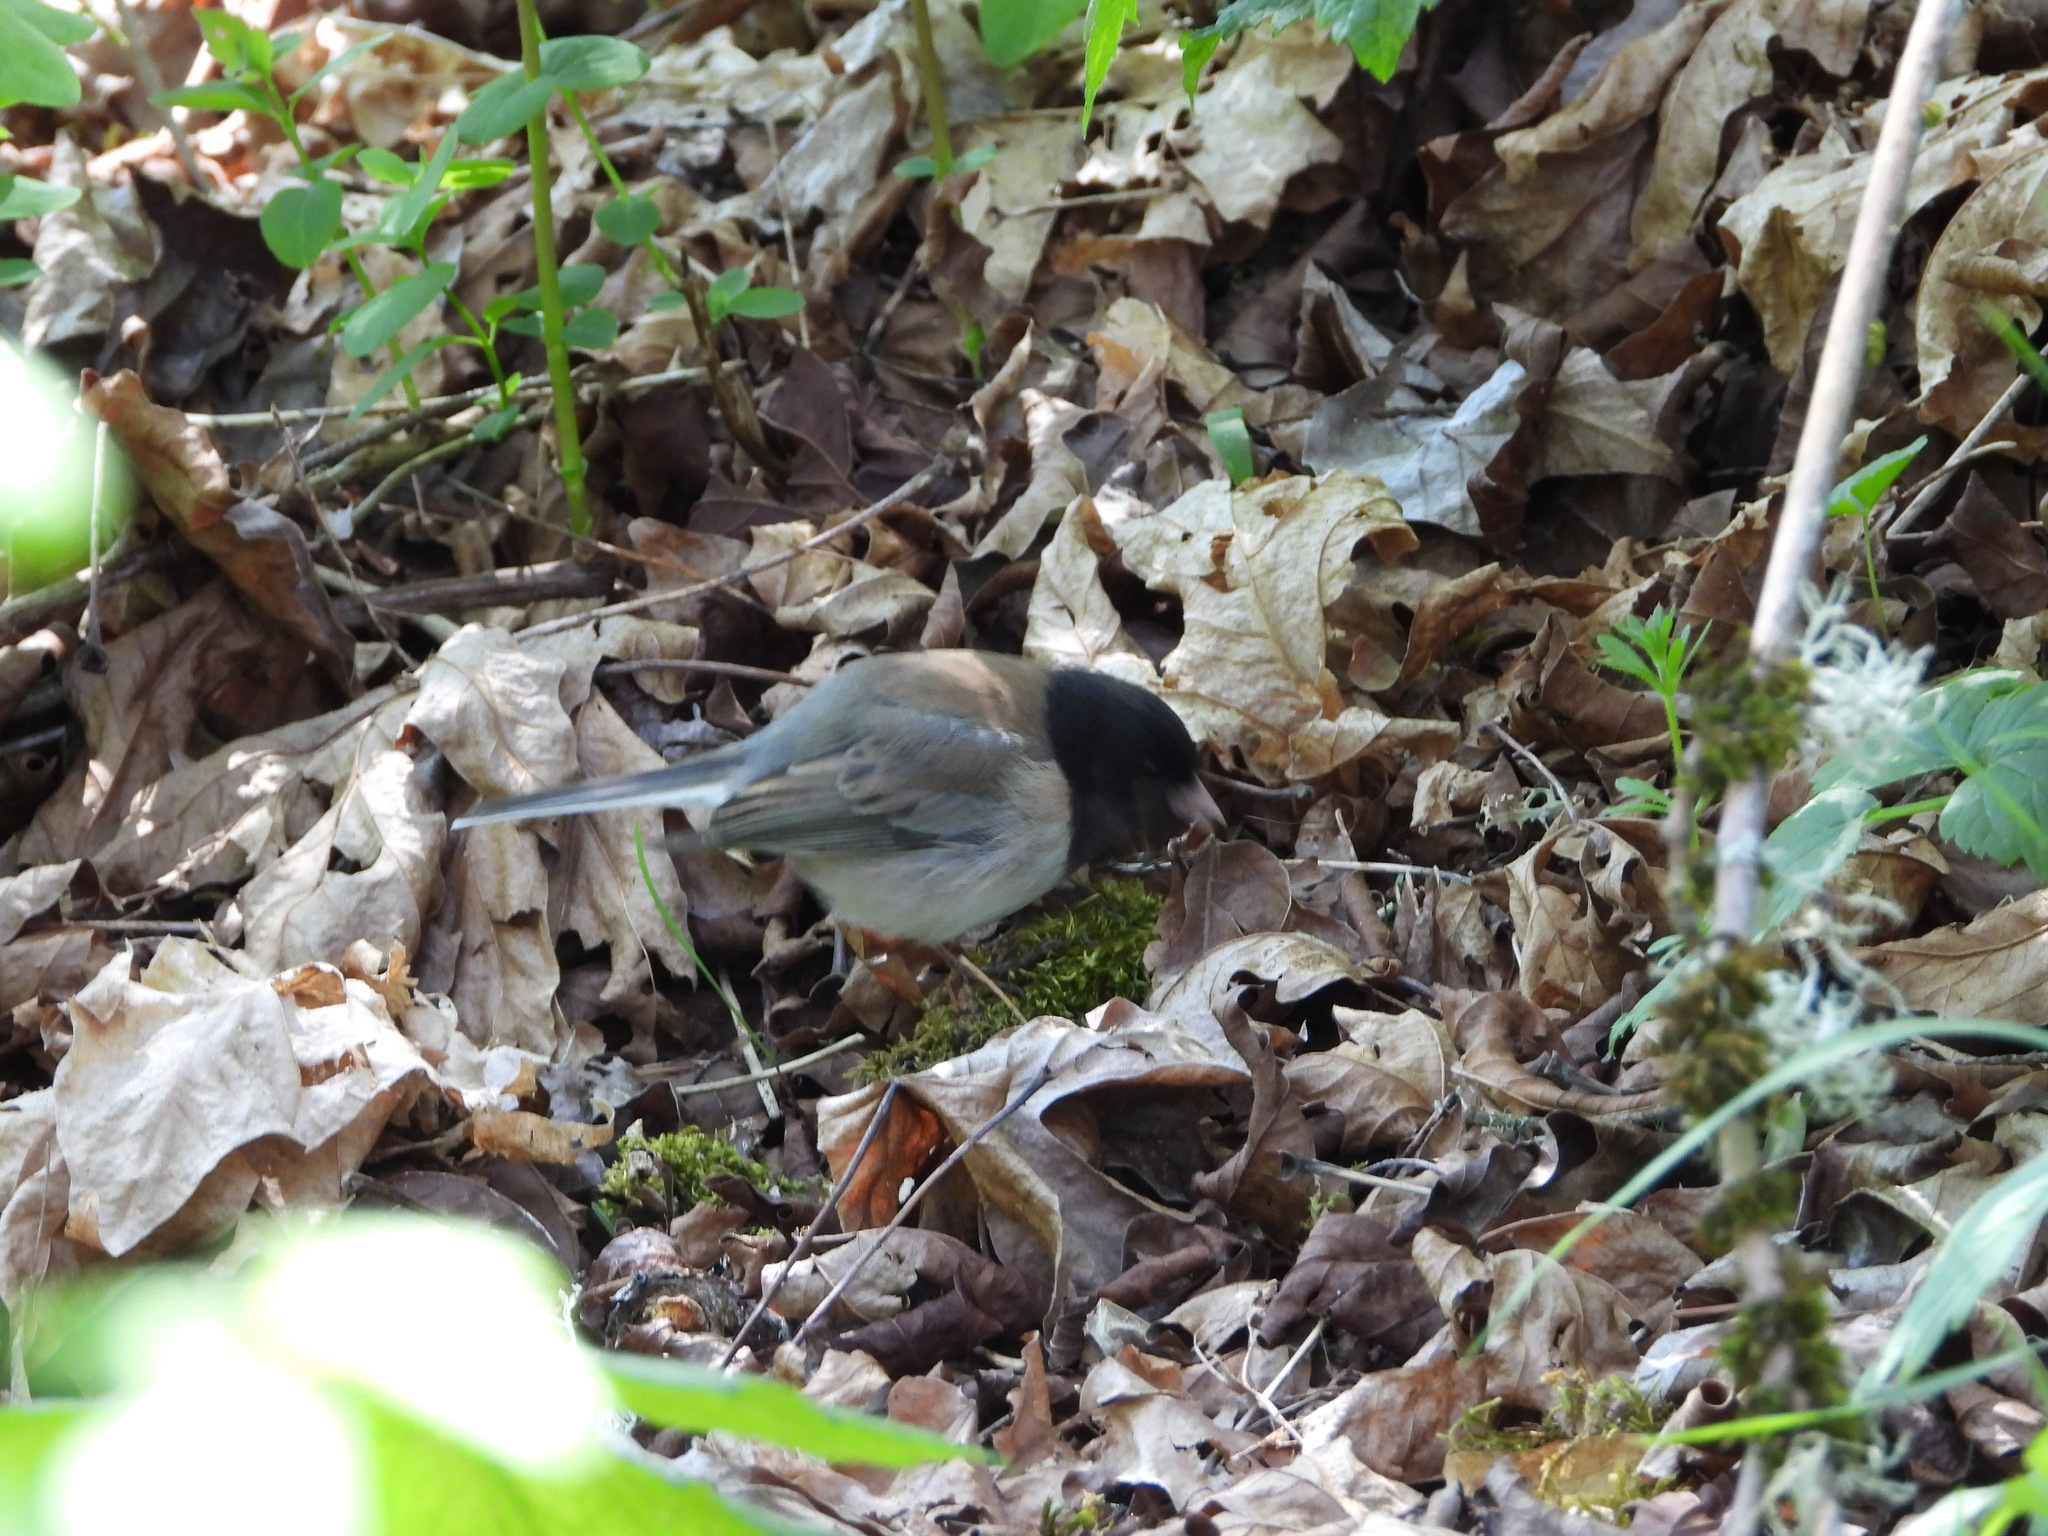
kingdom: Animalia
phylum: Chordata
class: Aves
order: Passeriformes
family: Passerellidae
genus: Junco
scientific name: Junco hyemalis
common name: Dark-eyed junco
